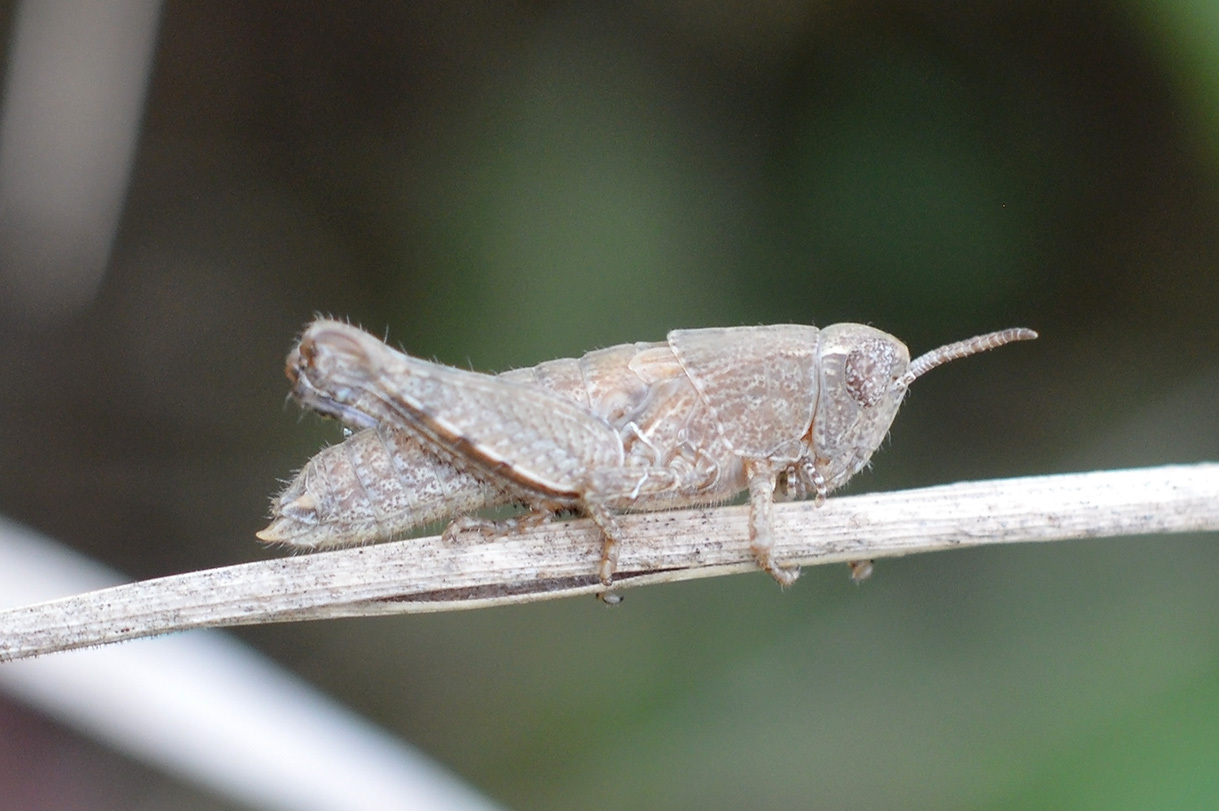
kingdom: Animalia
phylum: Arthropoda
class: Insecta
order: Orthoptera
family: Acrididae
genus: Pezotettix
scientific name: Pezotettix giornae
